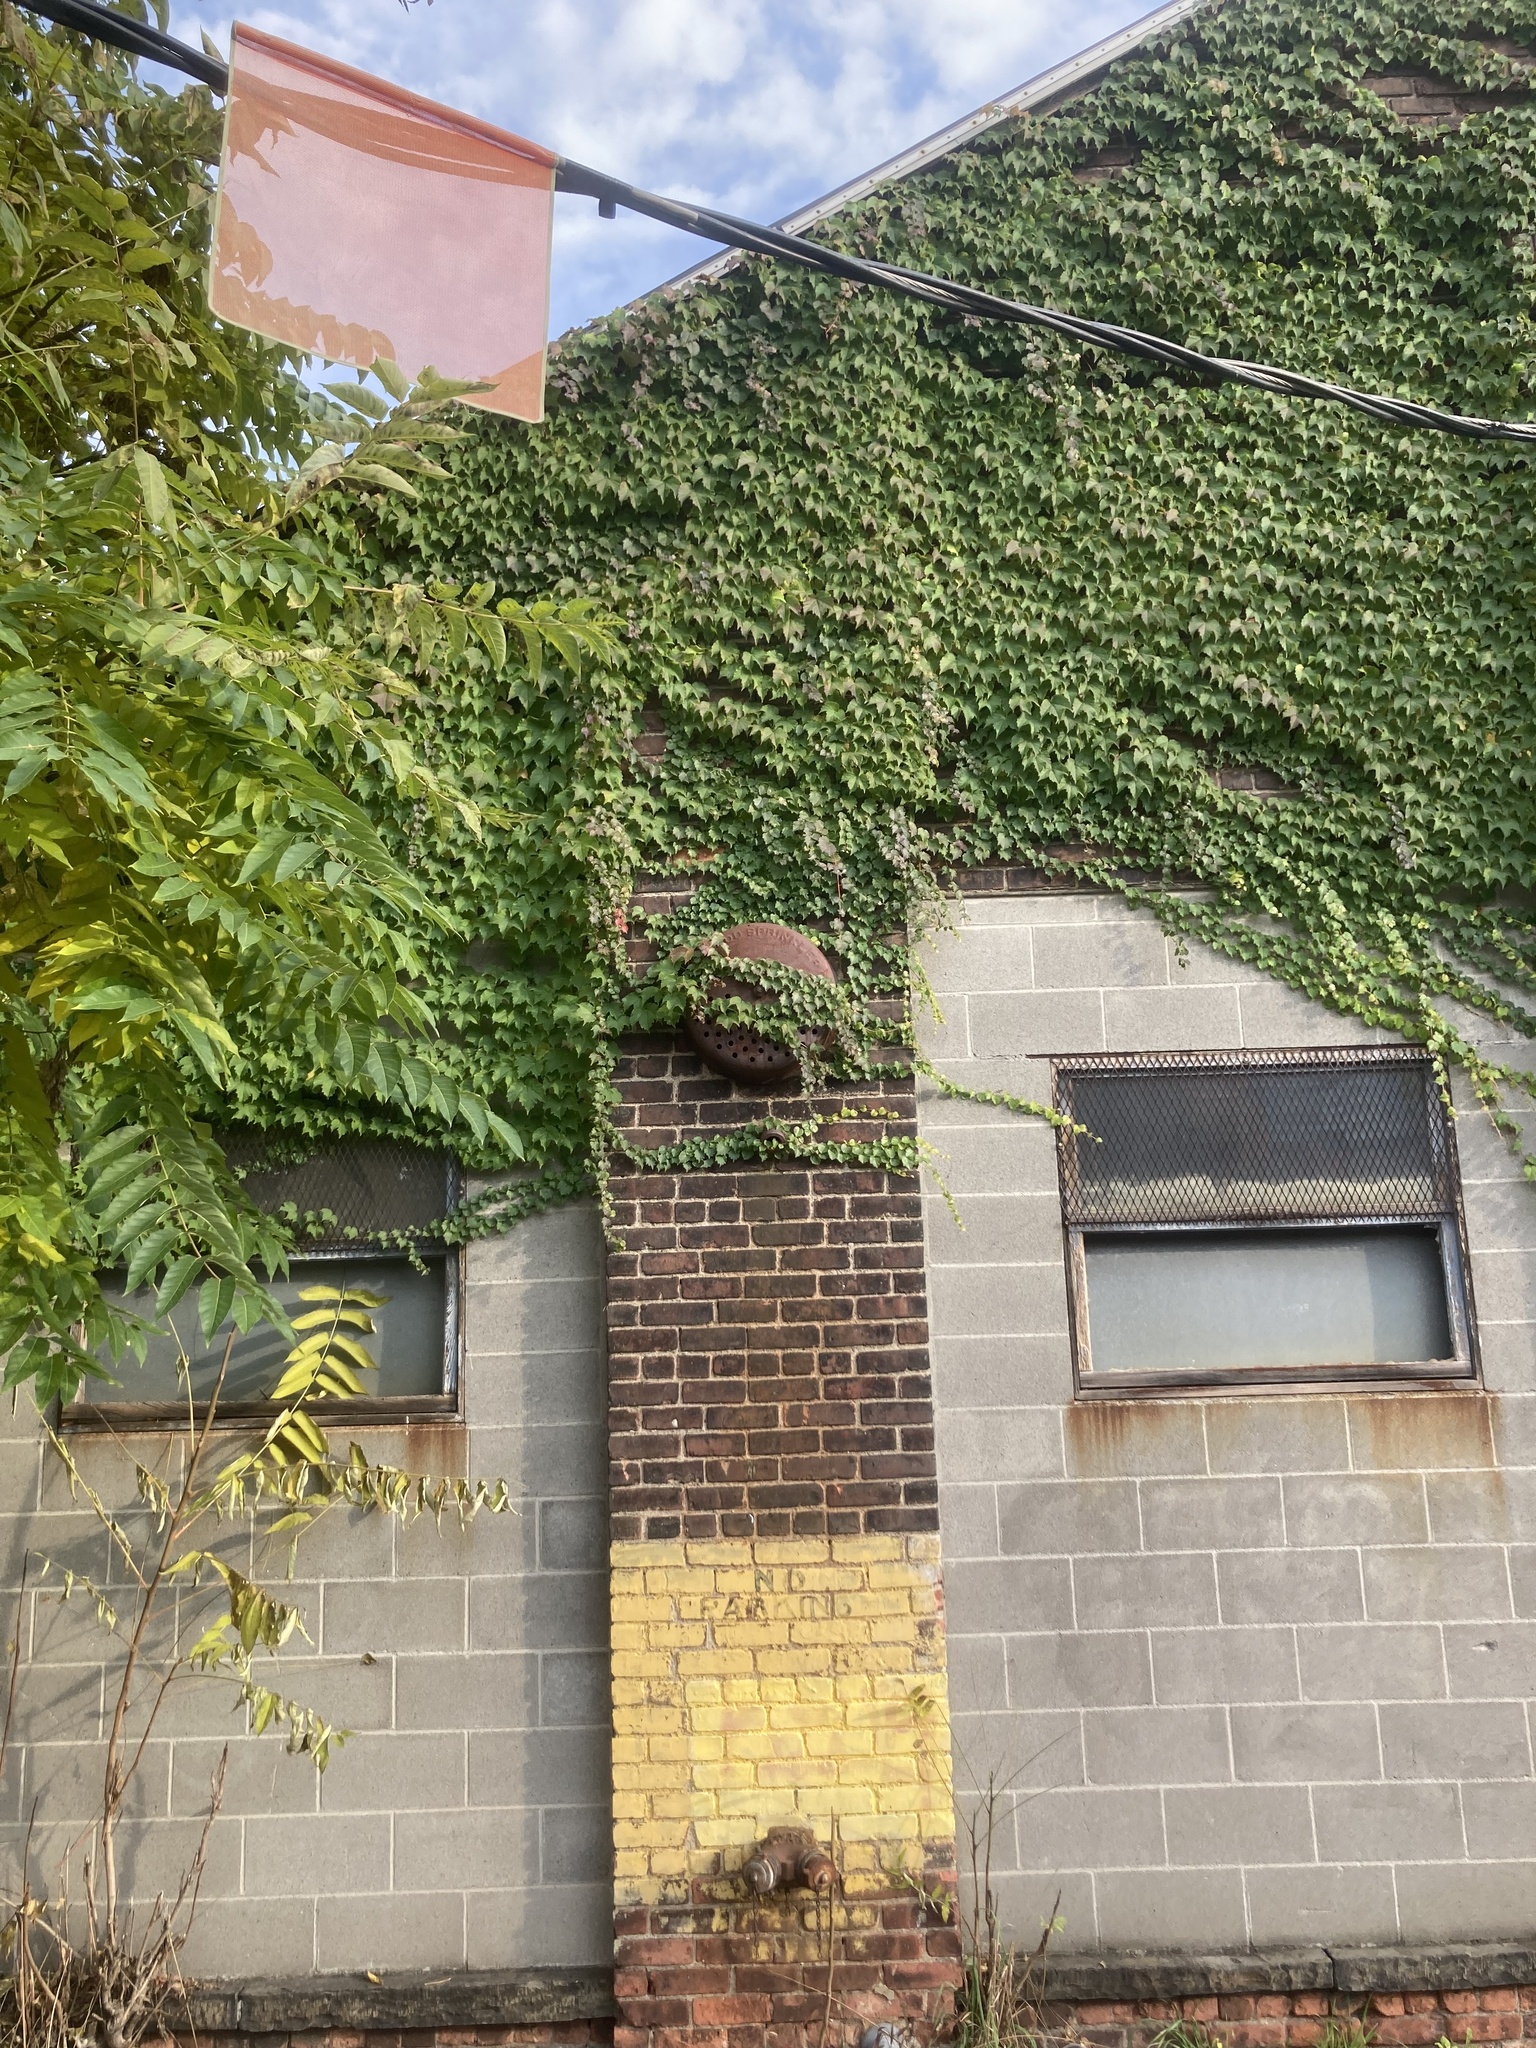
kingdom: Plantae
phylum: Tracheophyta
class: Magnoliopsida
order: Vitales
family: Vitaceae
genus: Parthenocissus
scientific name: Parthenocissus tricuspidata
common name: Boston ivy
